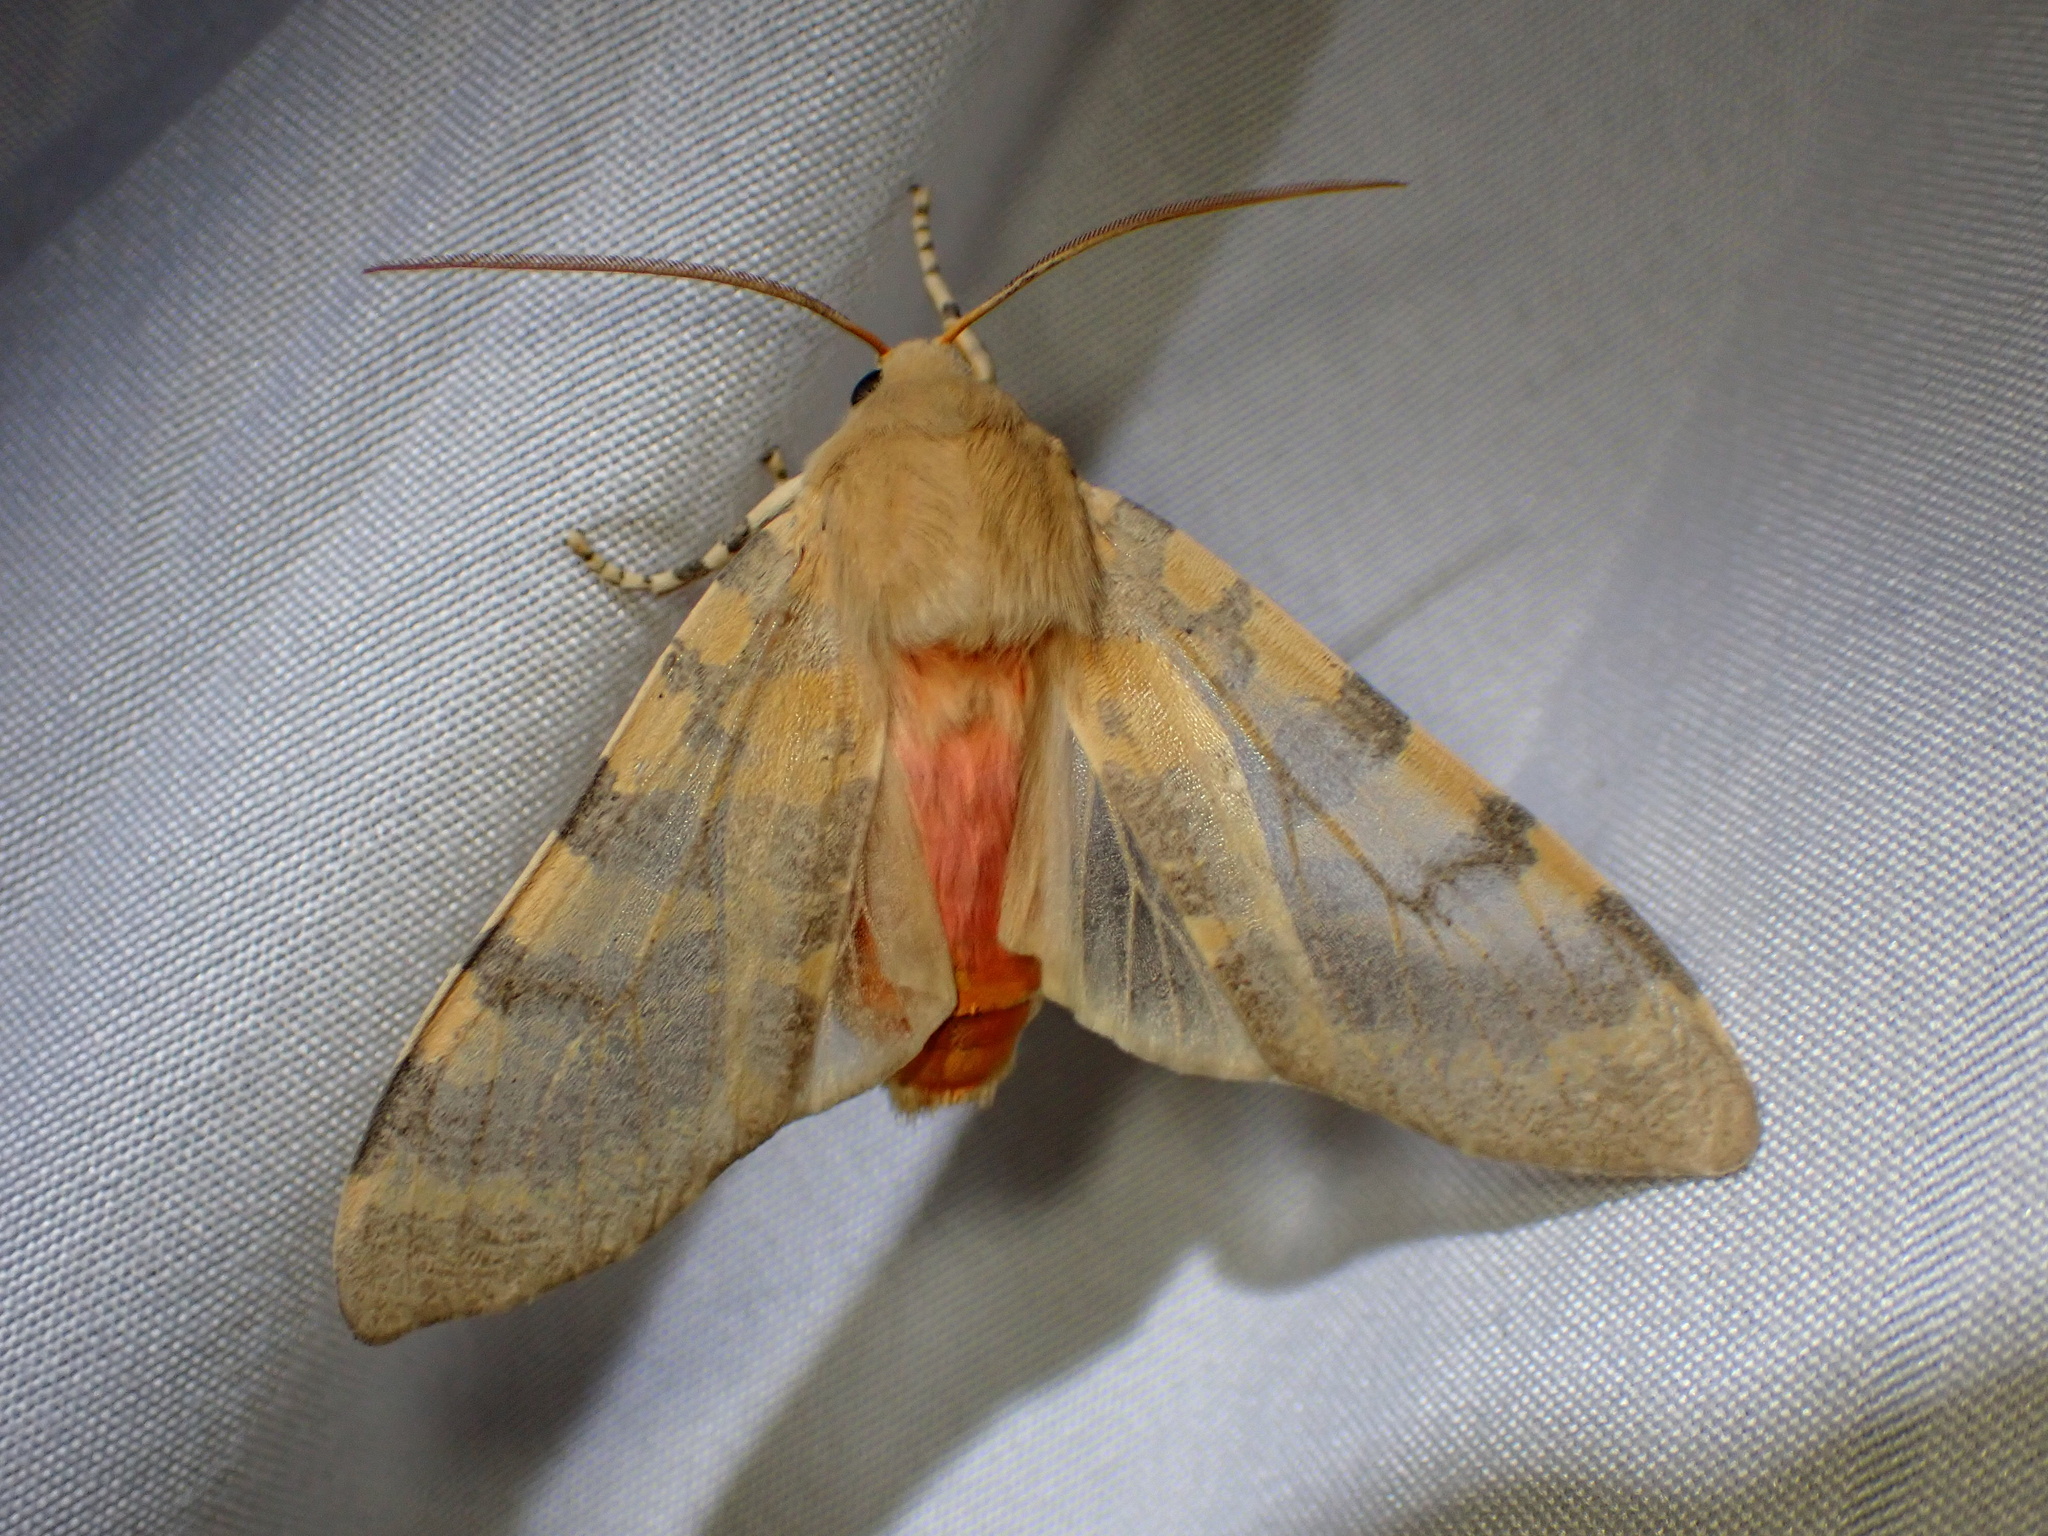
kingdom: Animalia
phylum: Arthropoda
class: Insecta
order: Lepidoptera
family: Erebidae
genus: Hemihyalea
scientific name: Hemihyalea edwardsii
